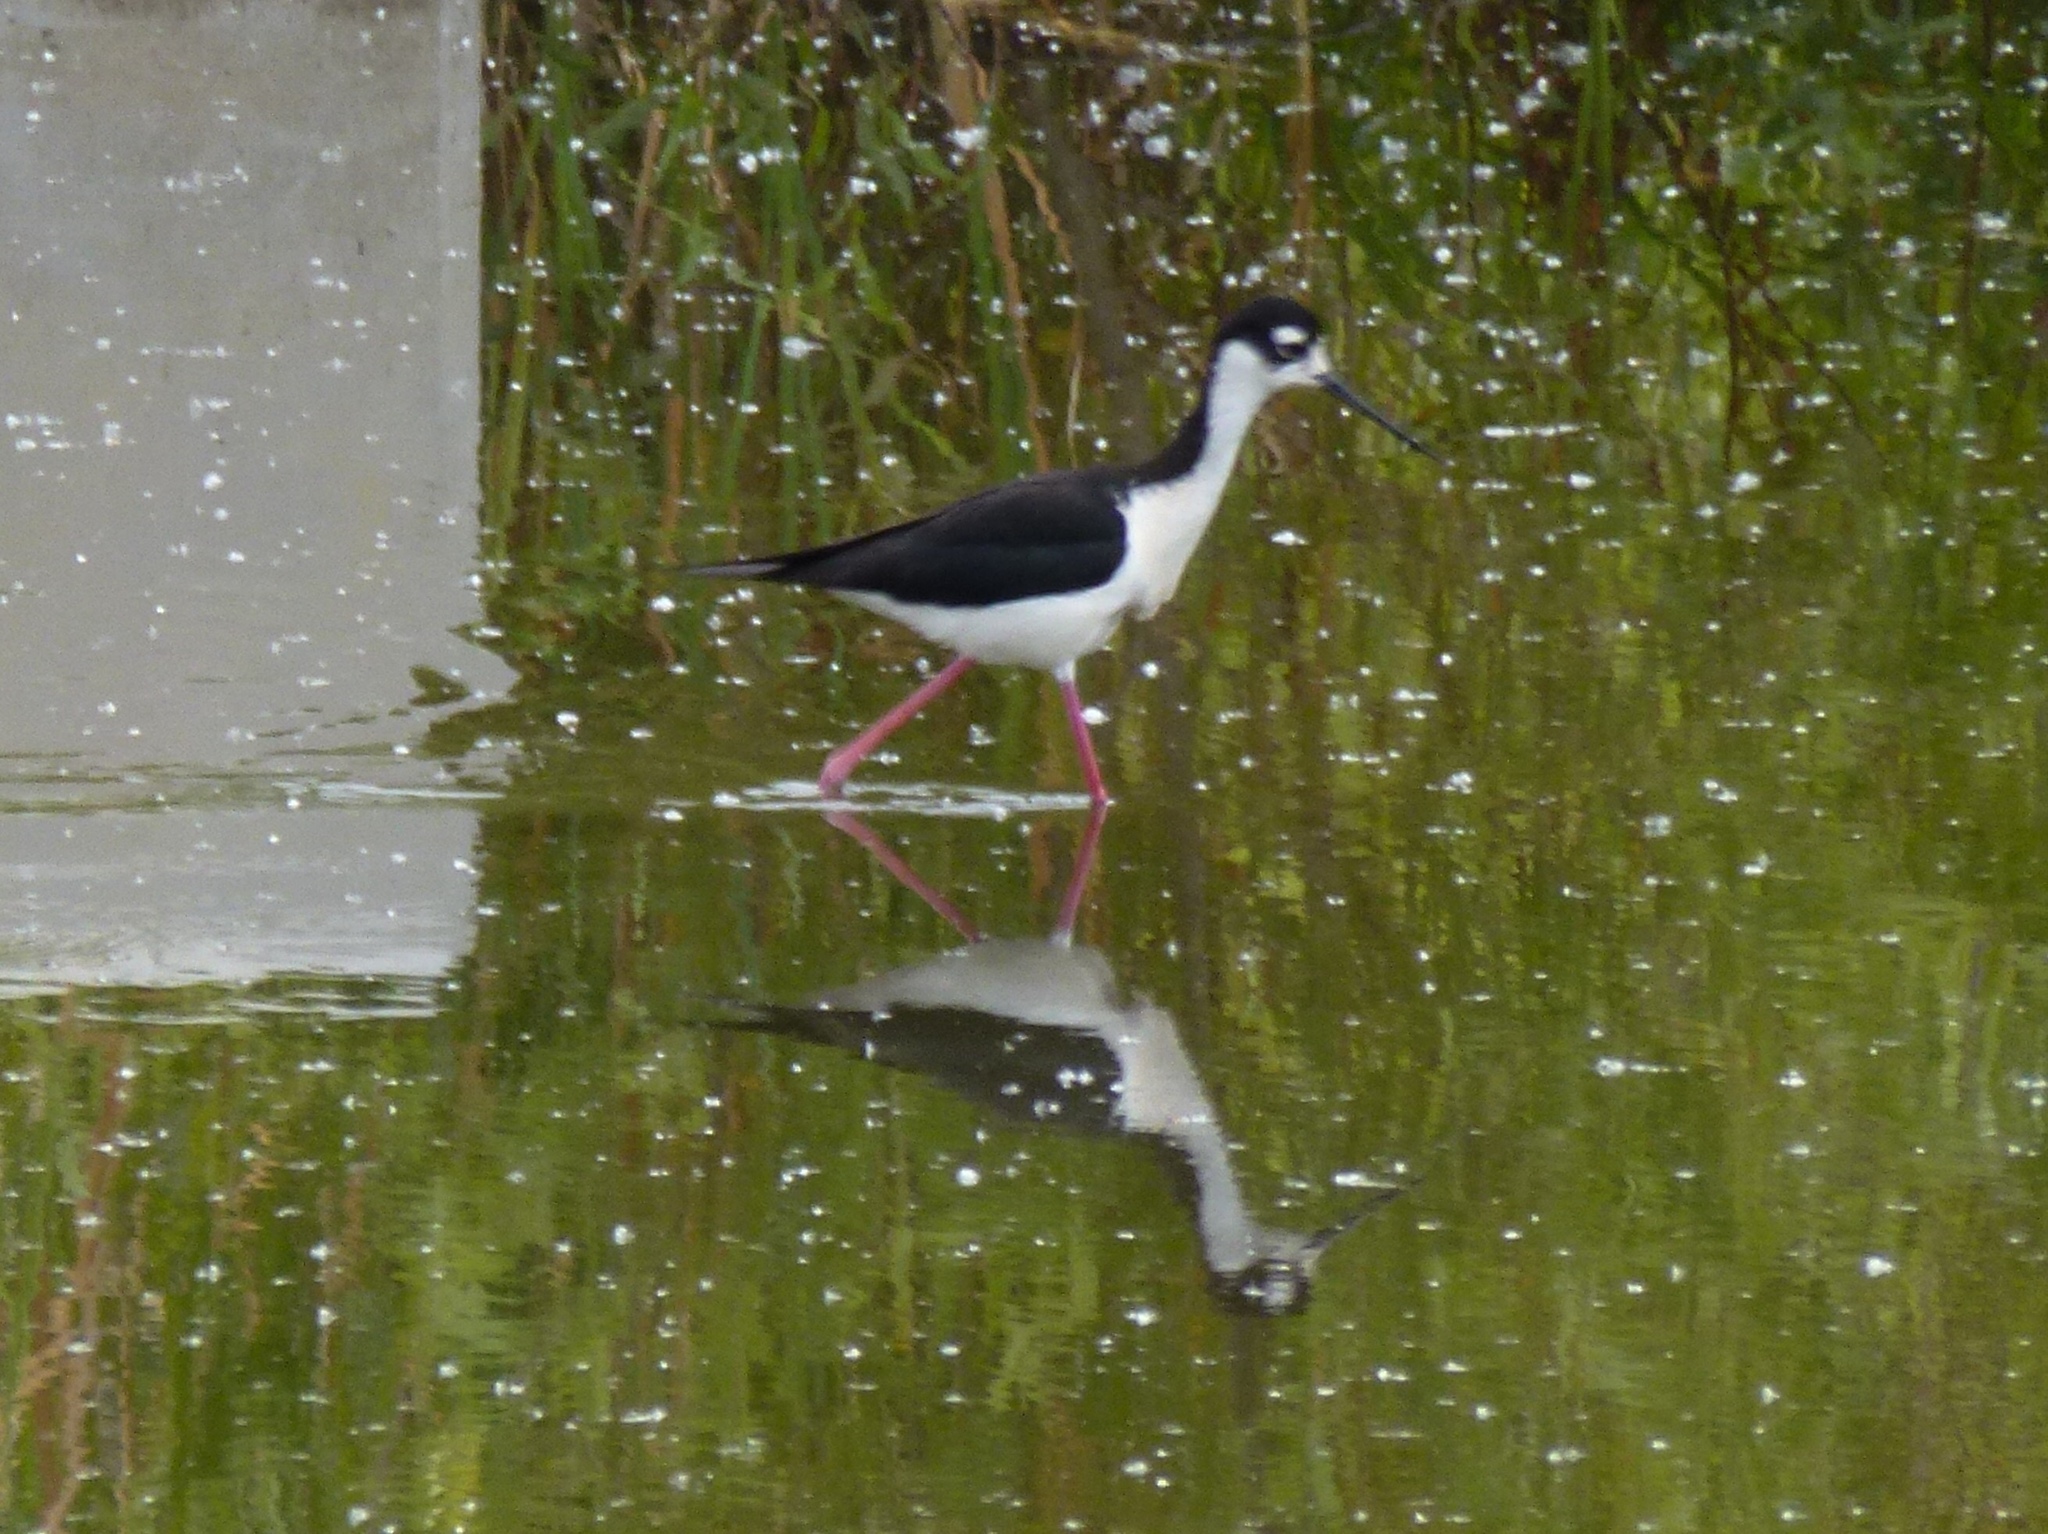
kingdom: Animalia
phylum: Chordata
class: Aves
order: Charadriiformes
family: Recurvirostridae
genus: Himantopus
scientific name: Himantopus mexicanus
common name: Black-necked stilt
